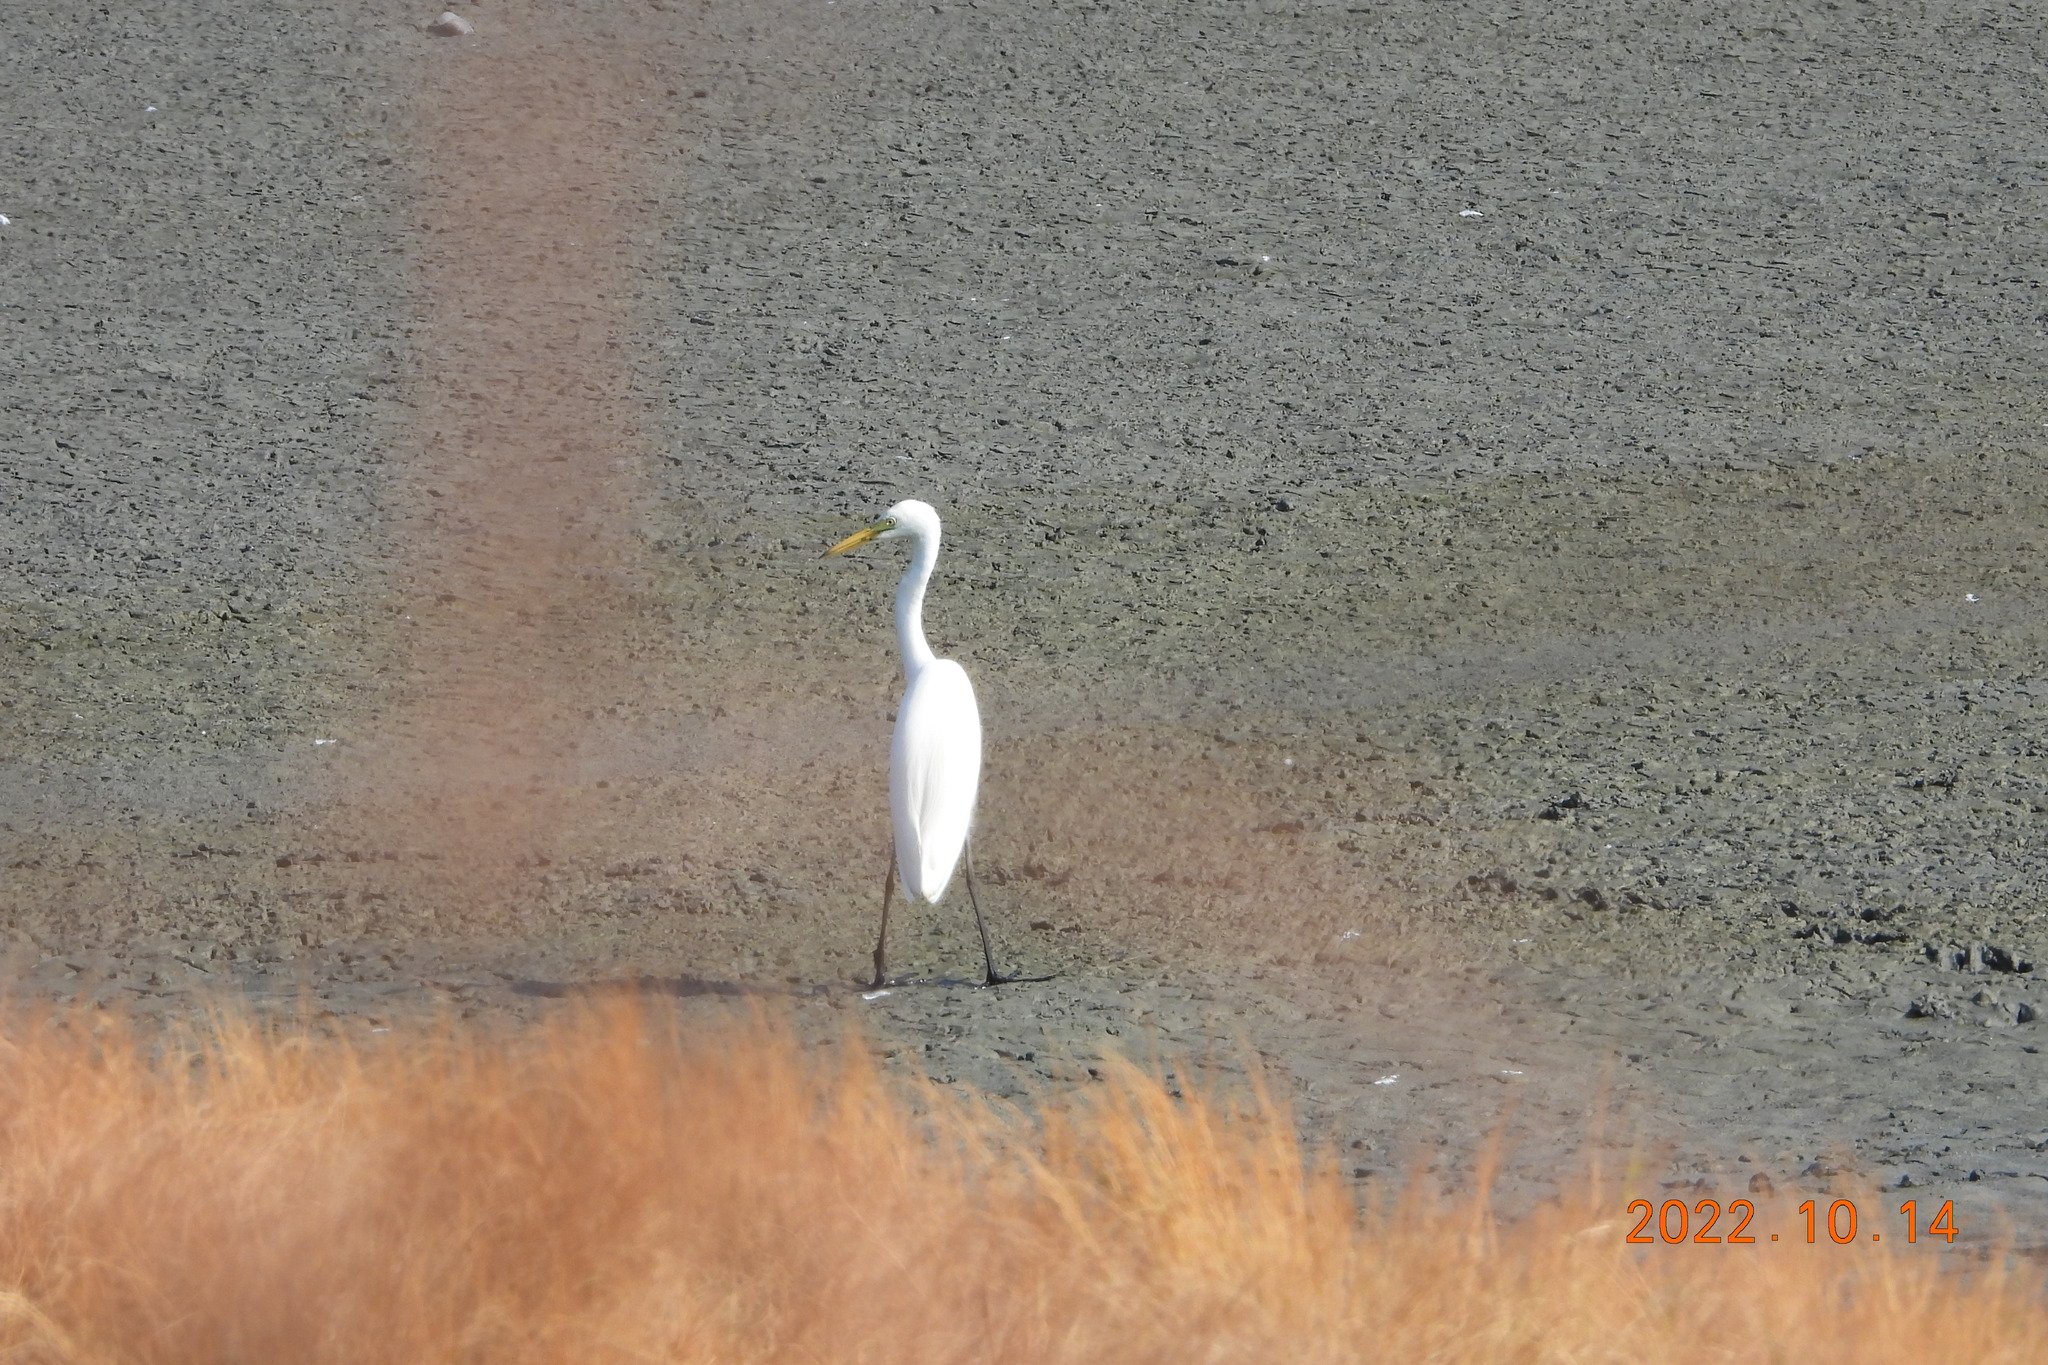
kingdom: Animalia
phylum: Chordata
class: Aves
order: Pelecaniformes
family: Ardeidae
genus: Egretta
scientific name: Egretta intermedia
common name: Intermediate egret
